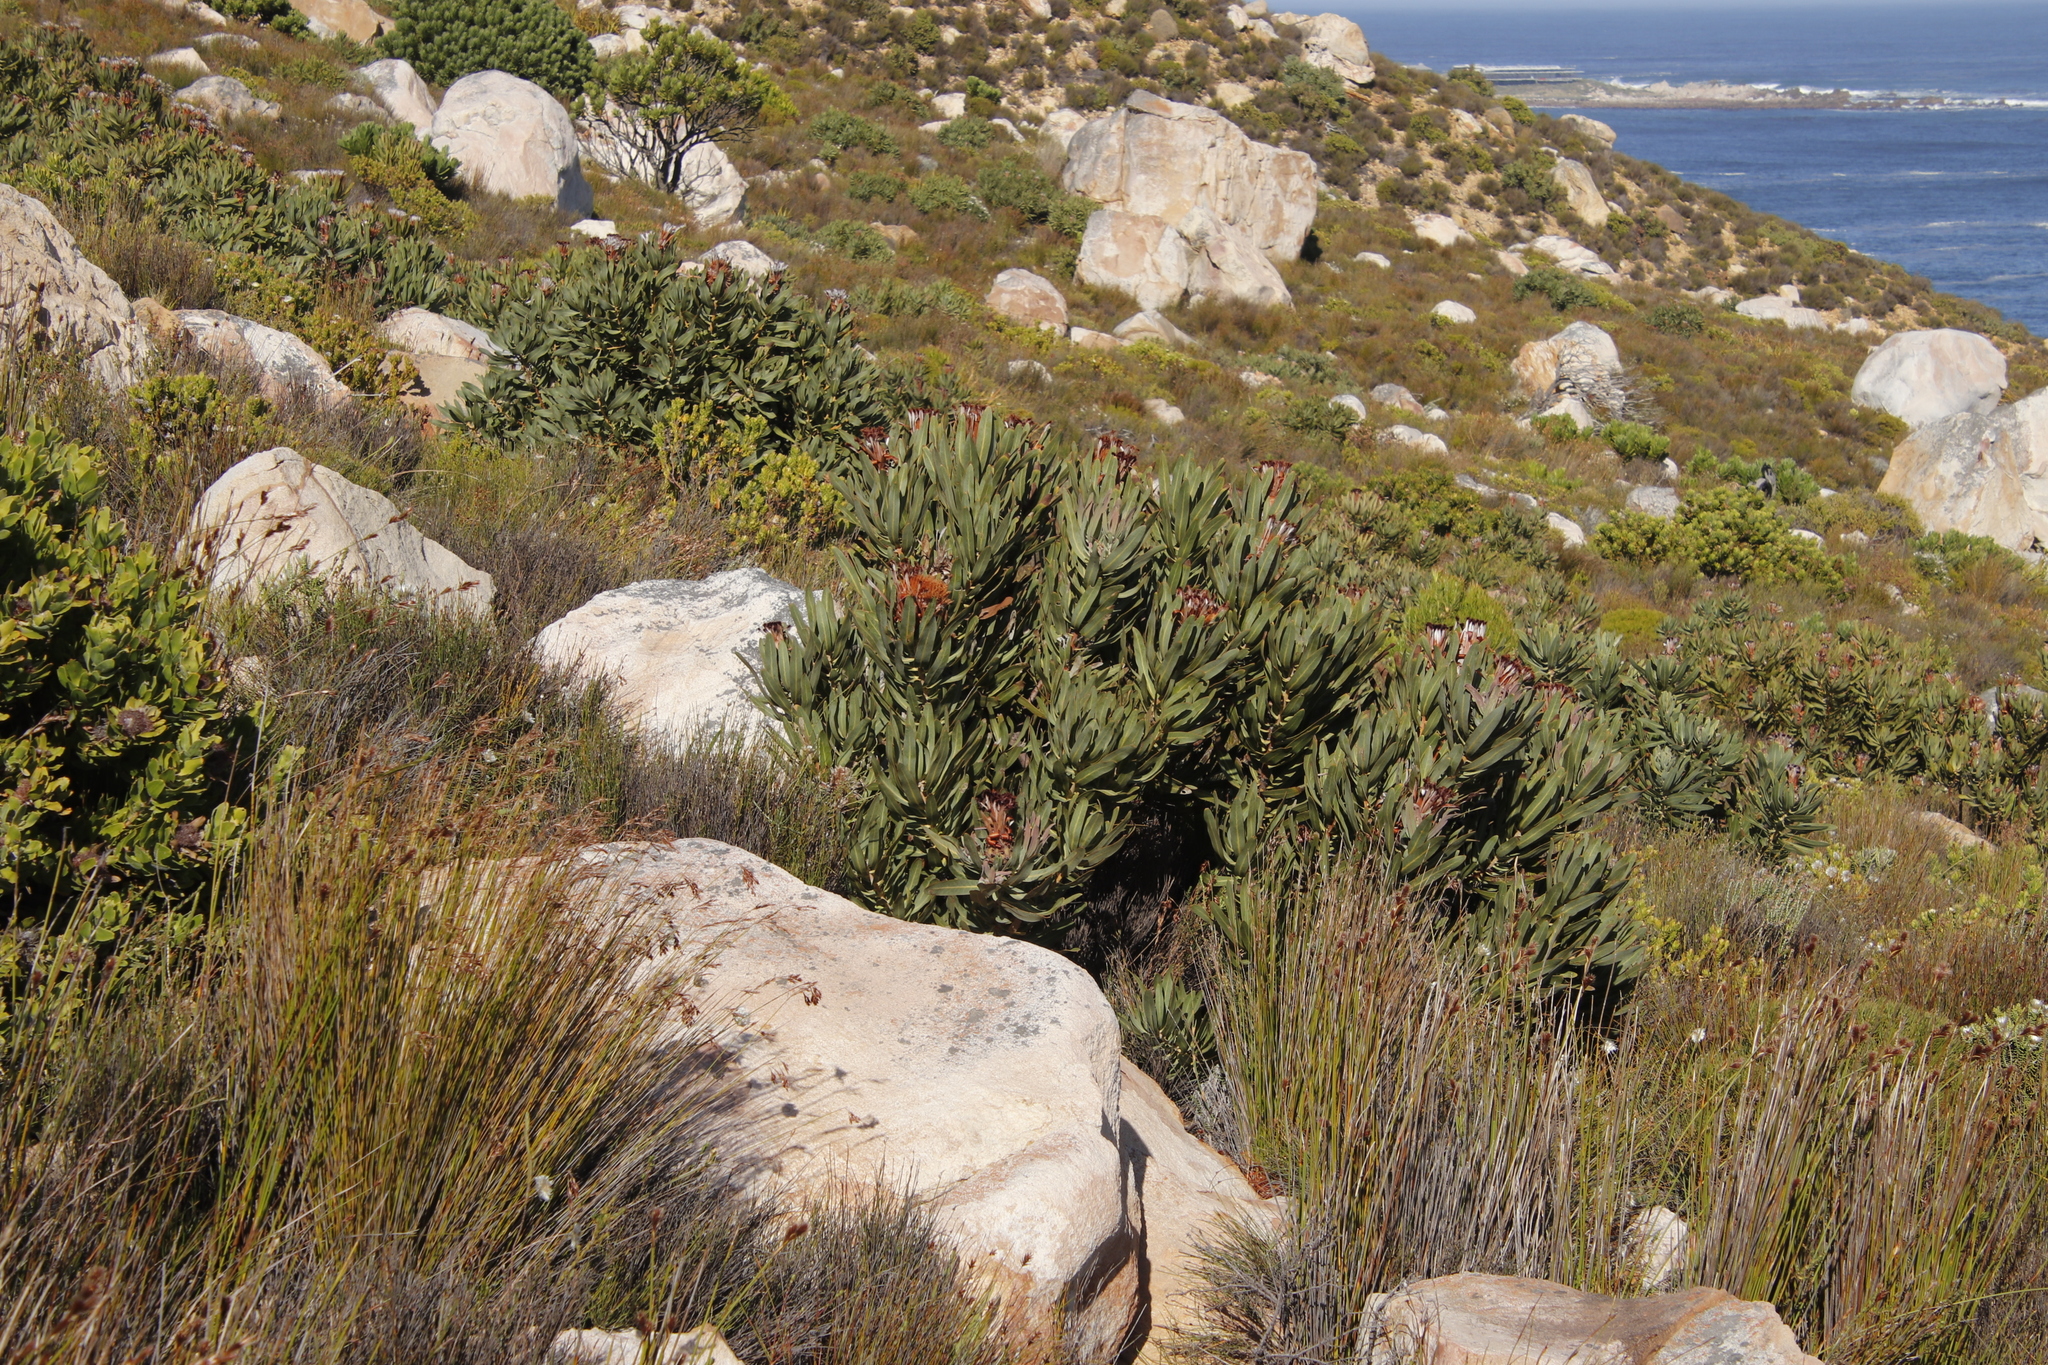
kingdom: Plantae
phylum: Tracheophyta
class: Magnoliopsida
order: Proteales
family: Proteaceae
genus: Protea
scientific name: Protea neriifolia
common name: Blue sugarbush
